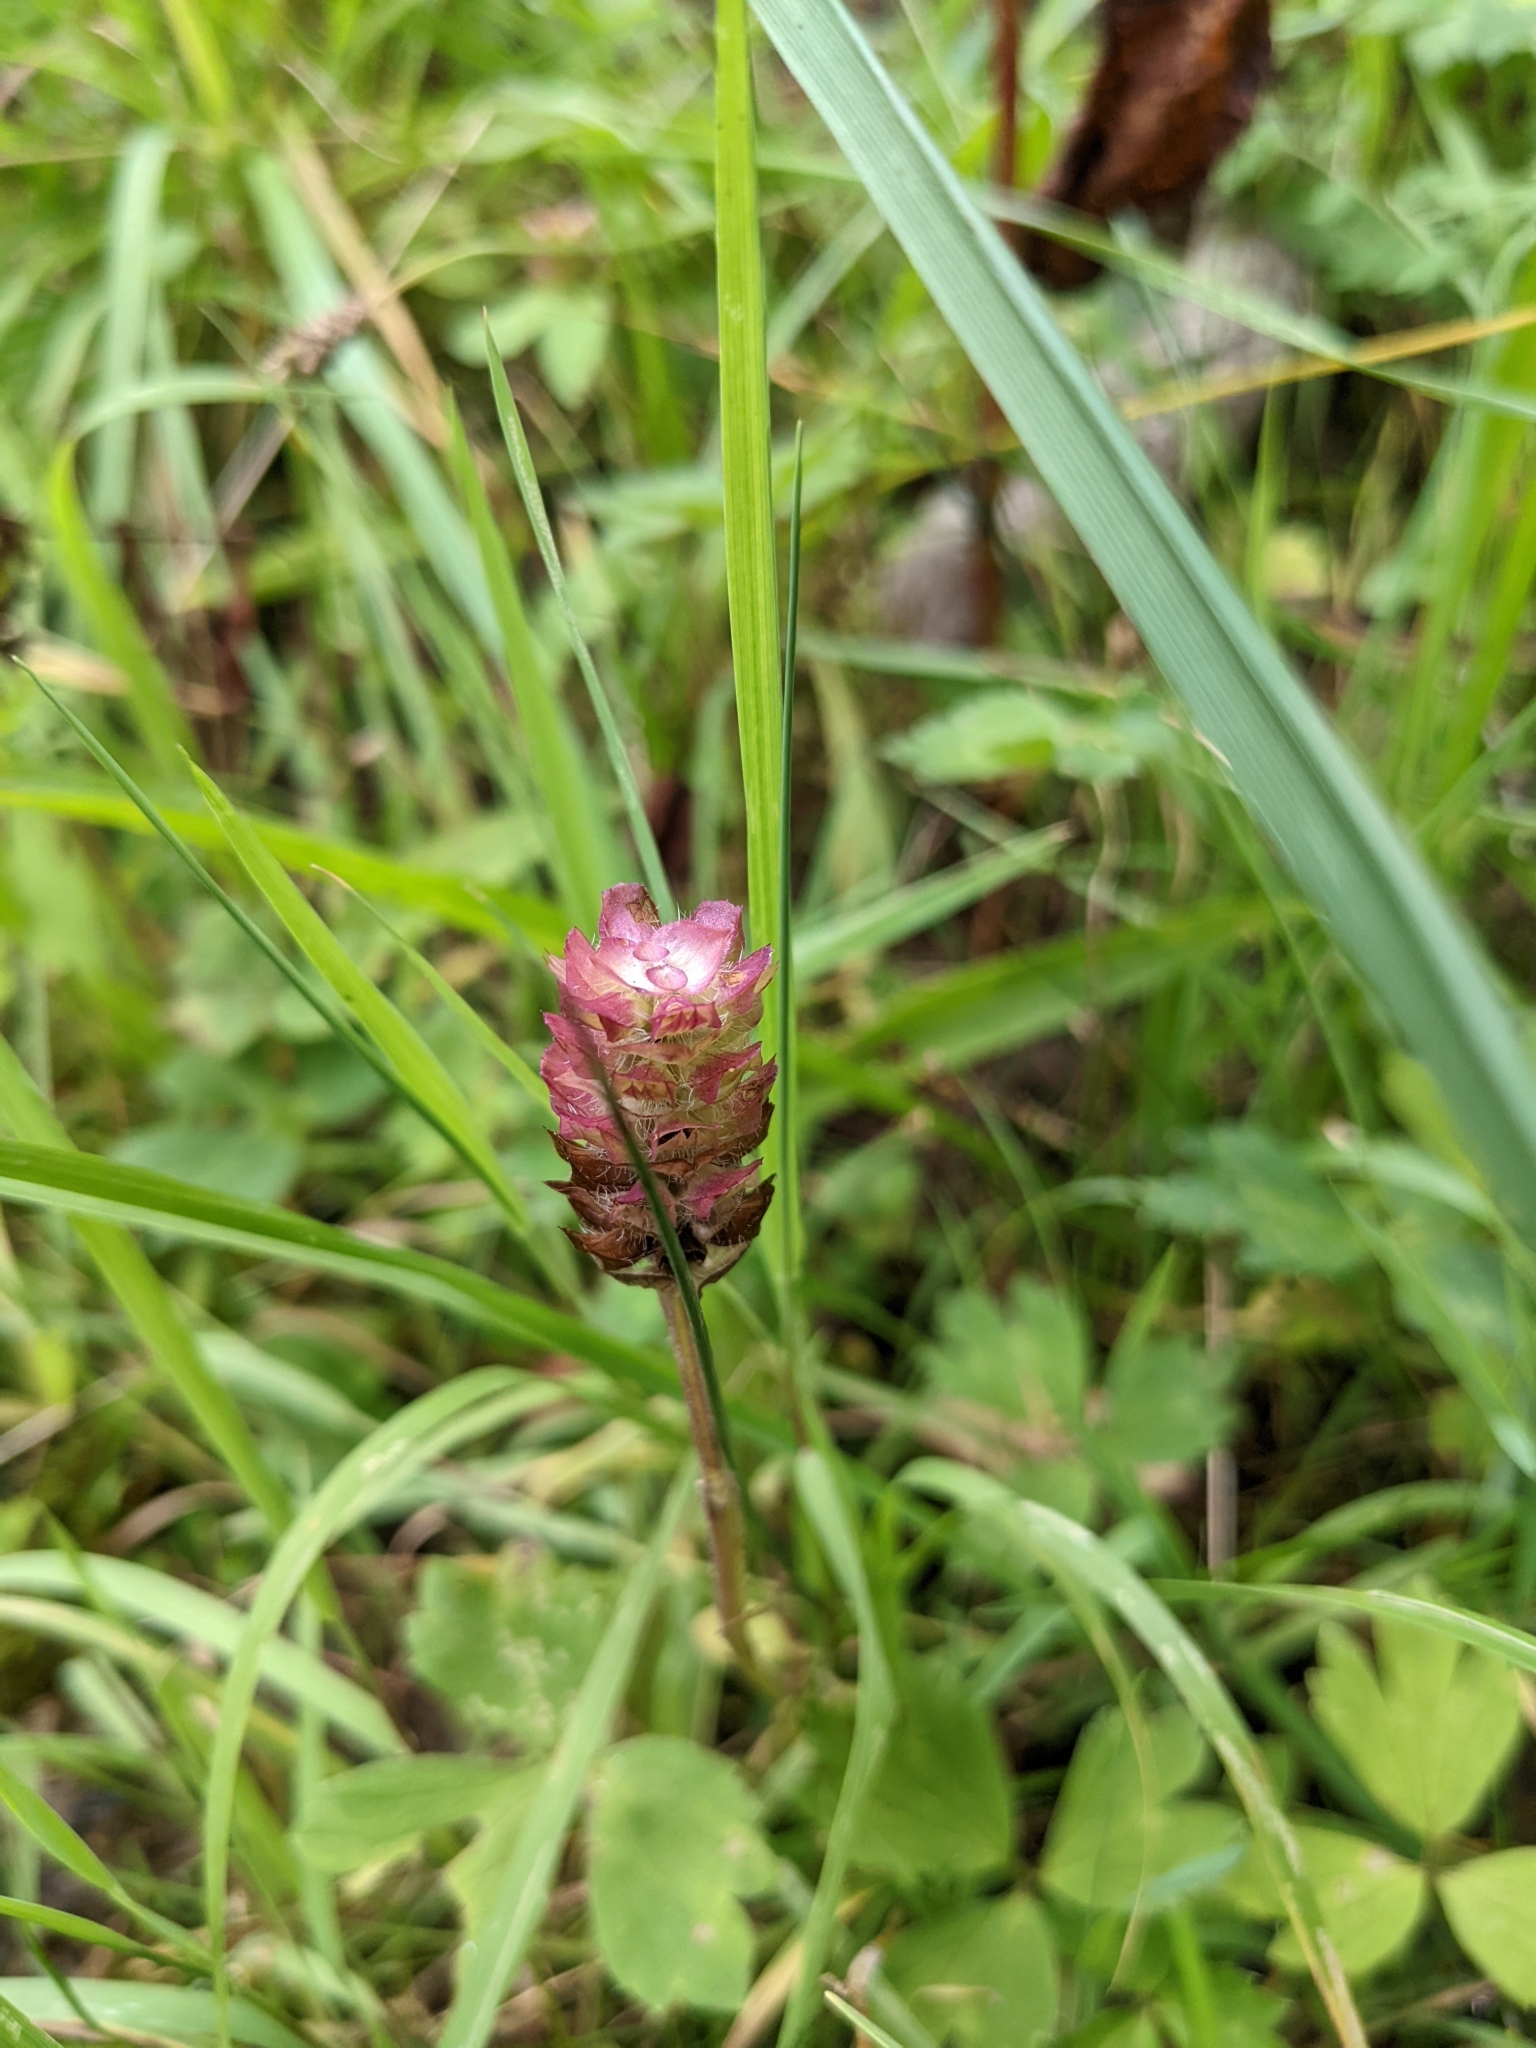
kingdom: Plantae
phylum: Tracheophyta
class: Magnoliopsida
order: Lamiales
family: Lamiaceae
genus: Prunella
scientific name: Prunella vulgaris
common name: Heal-all
